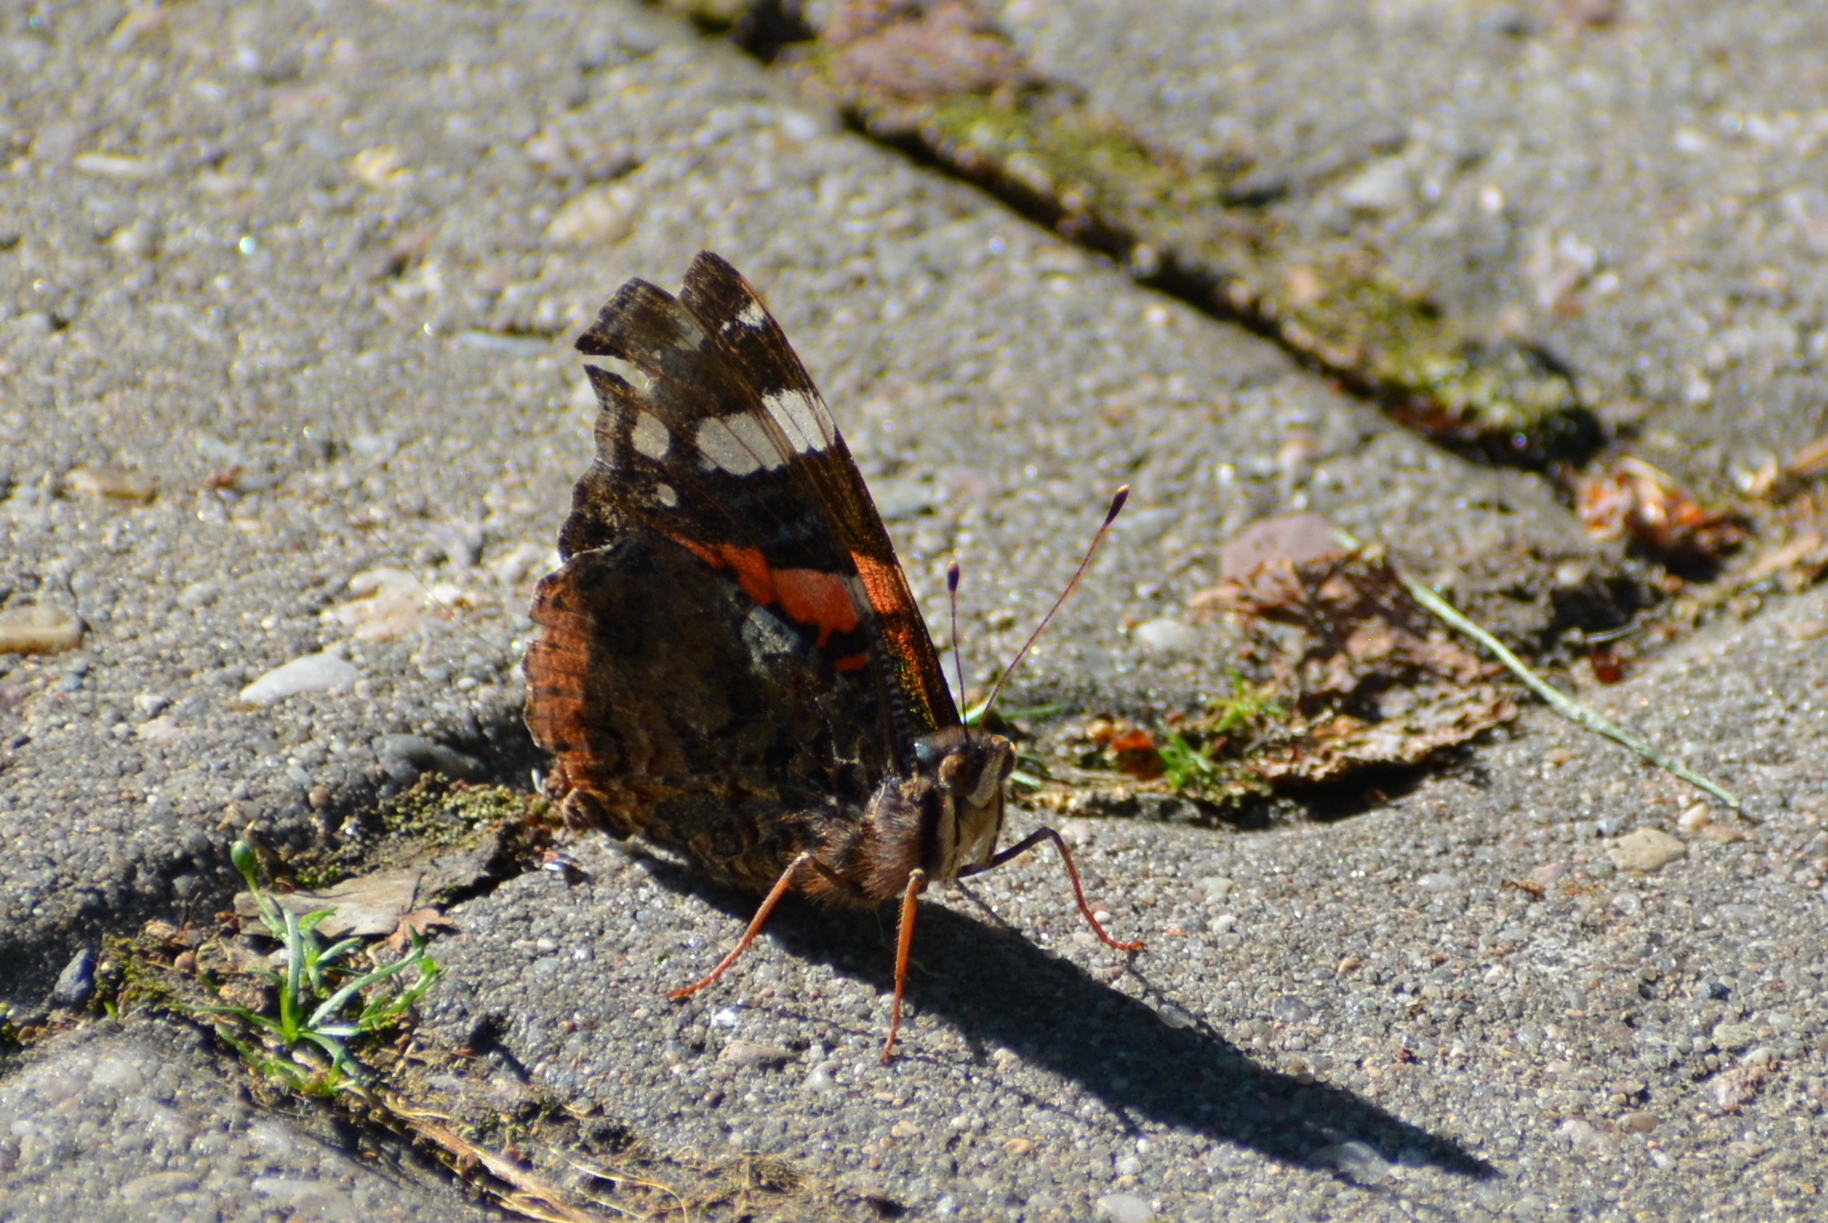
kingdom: Animalia
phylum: Arthropoda
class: Insecta
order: Lepidoptera
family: Nymphalidae
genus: Vanessa
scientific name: Vanessa atalanta
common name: Red admiral
